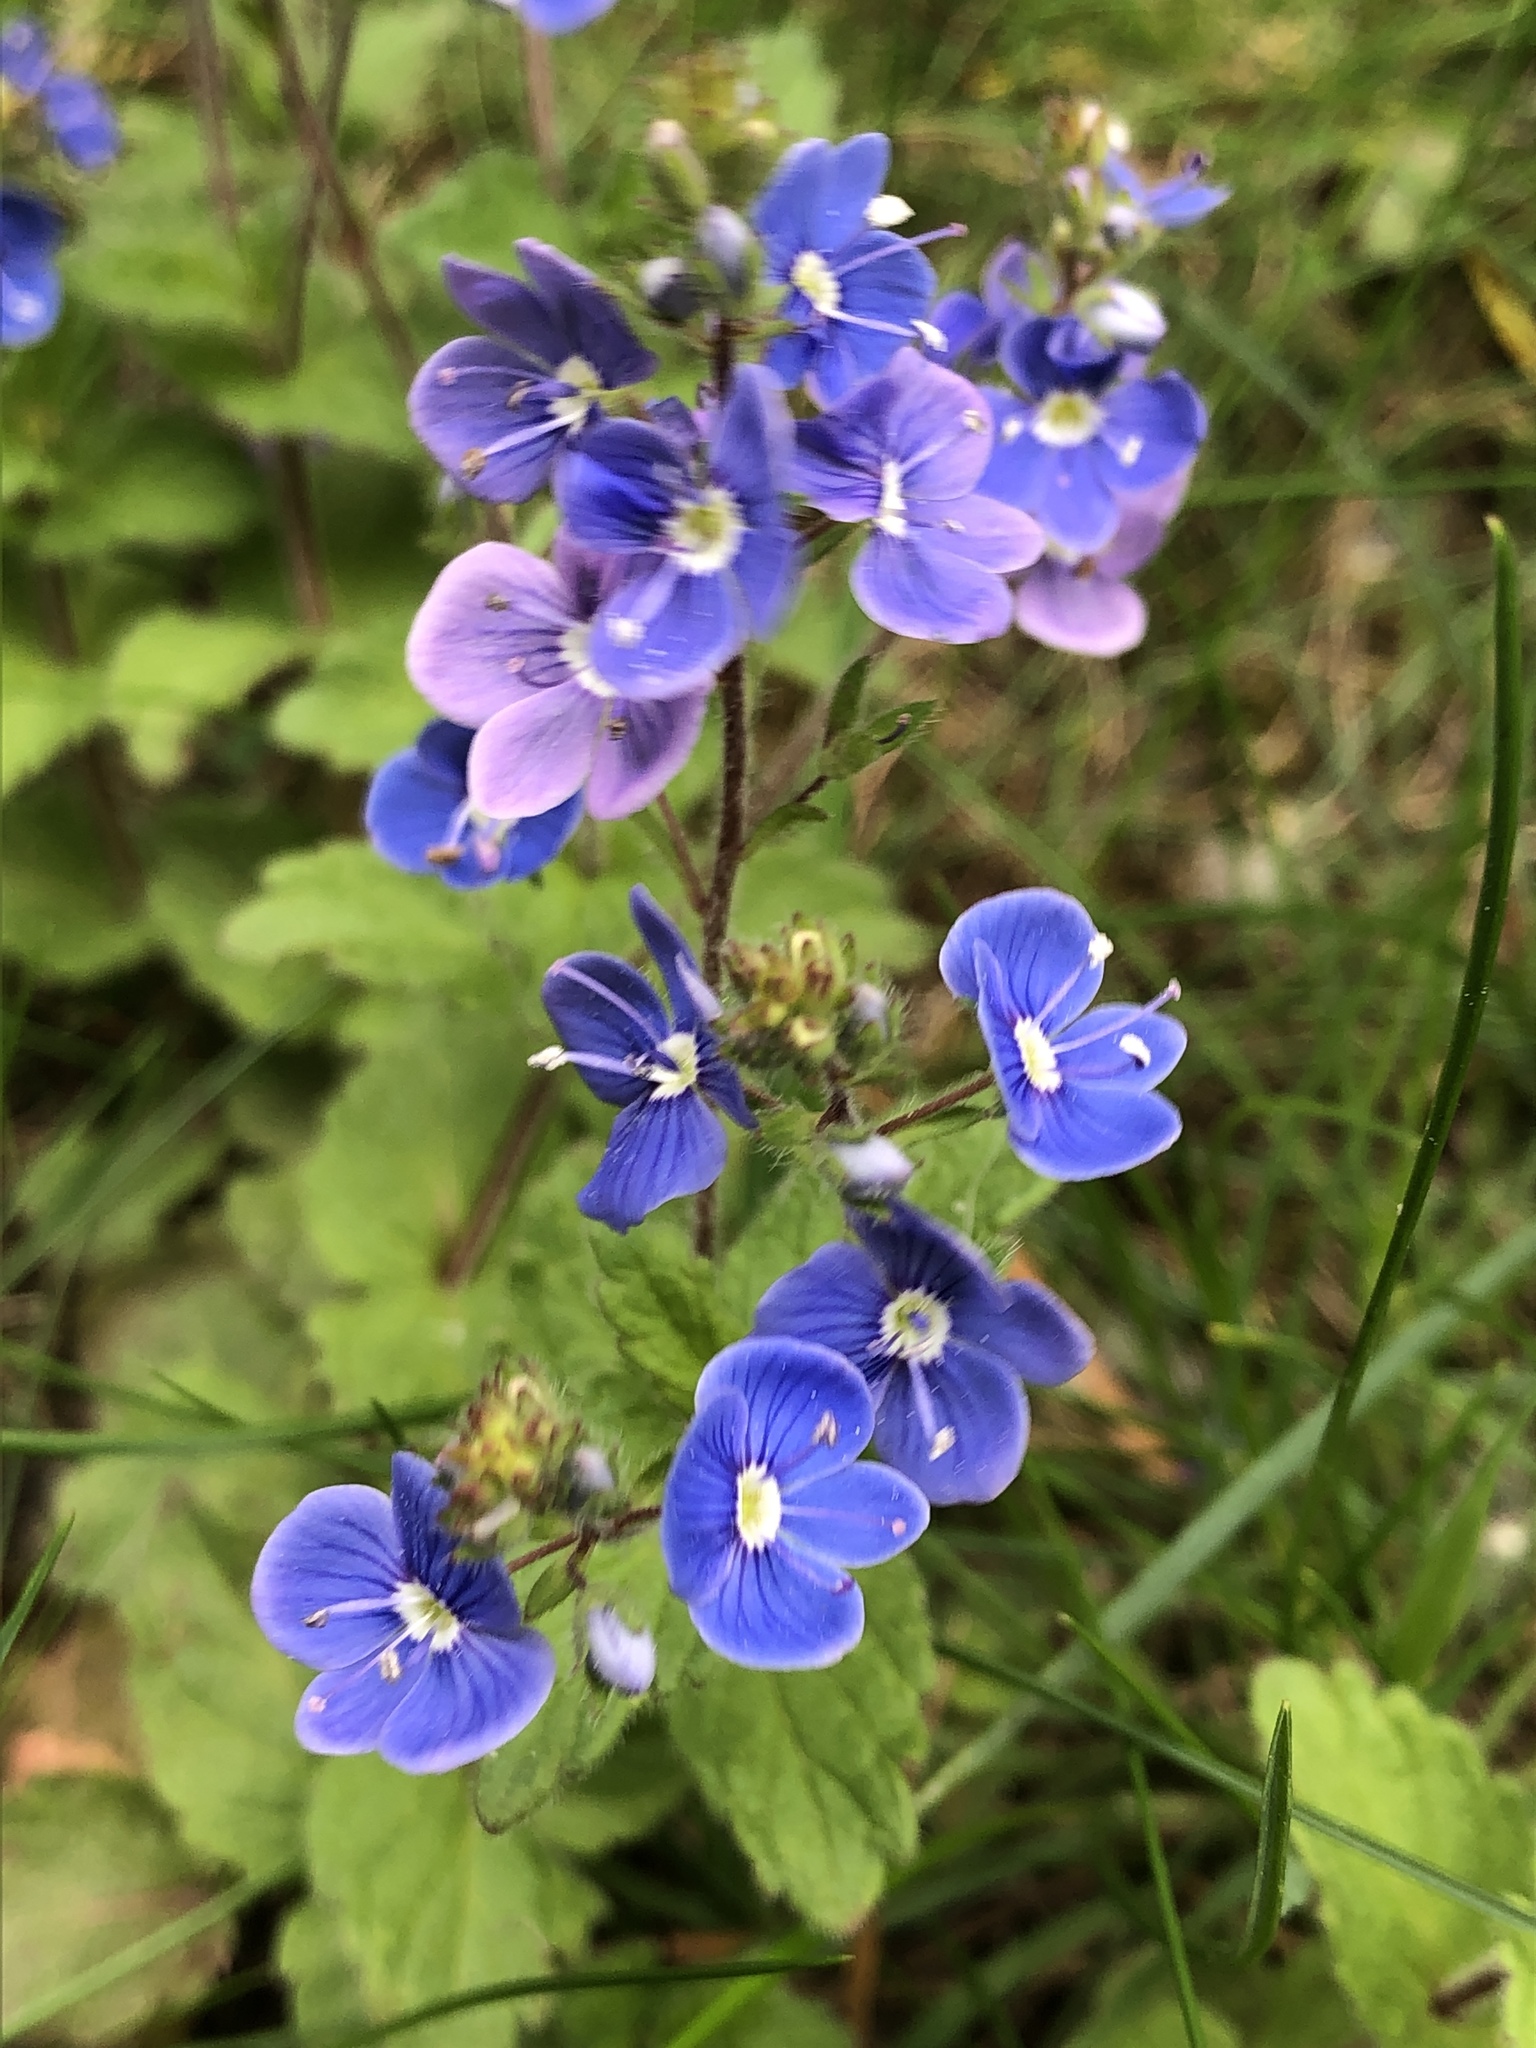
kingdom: Plantae
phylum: Tracheophyta
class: Magnoliopsida
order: Lamiales
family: Plantaginaceae
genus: Veronica
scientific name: Veronica chamaedrys
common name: Germander speedwell
